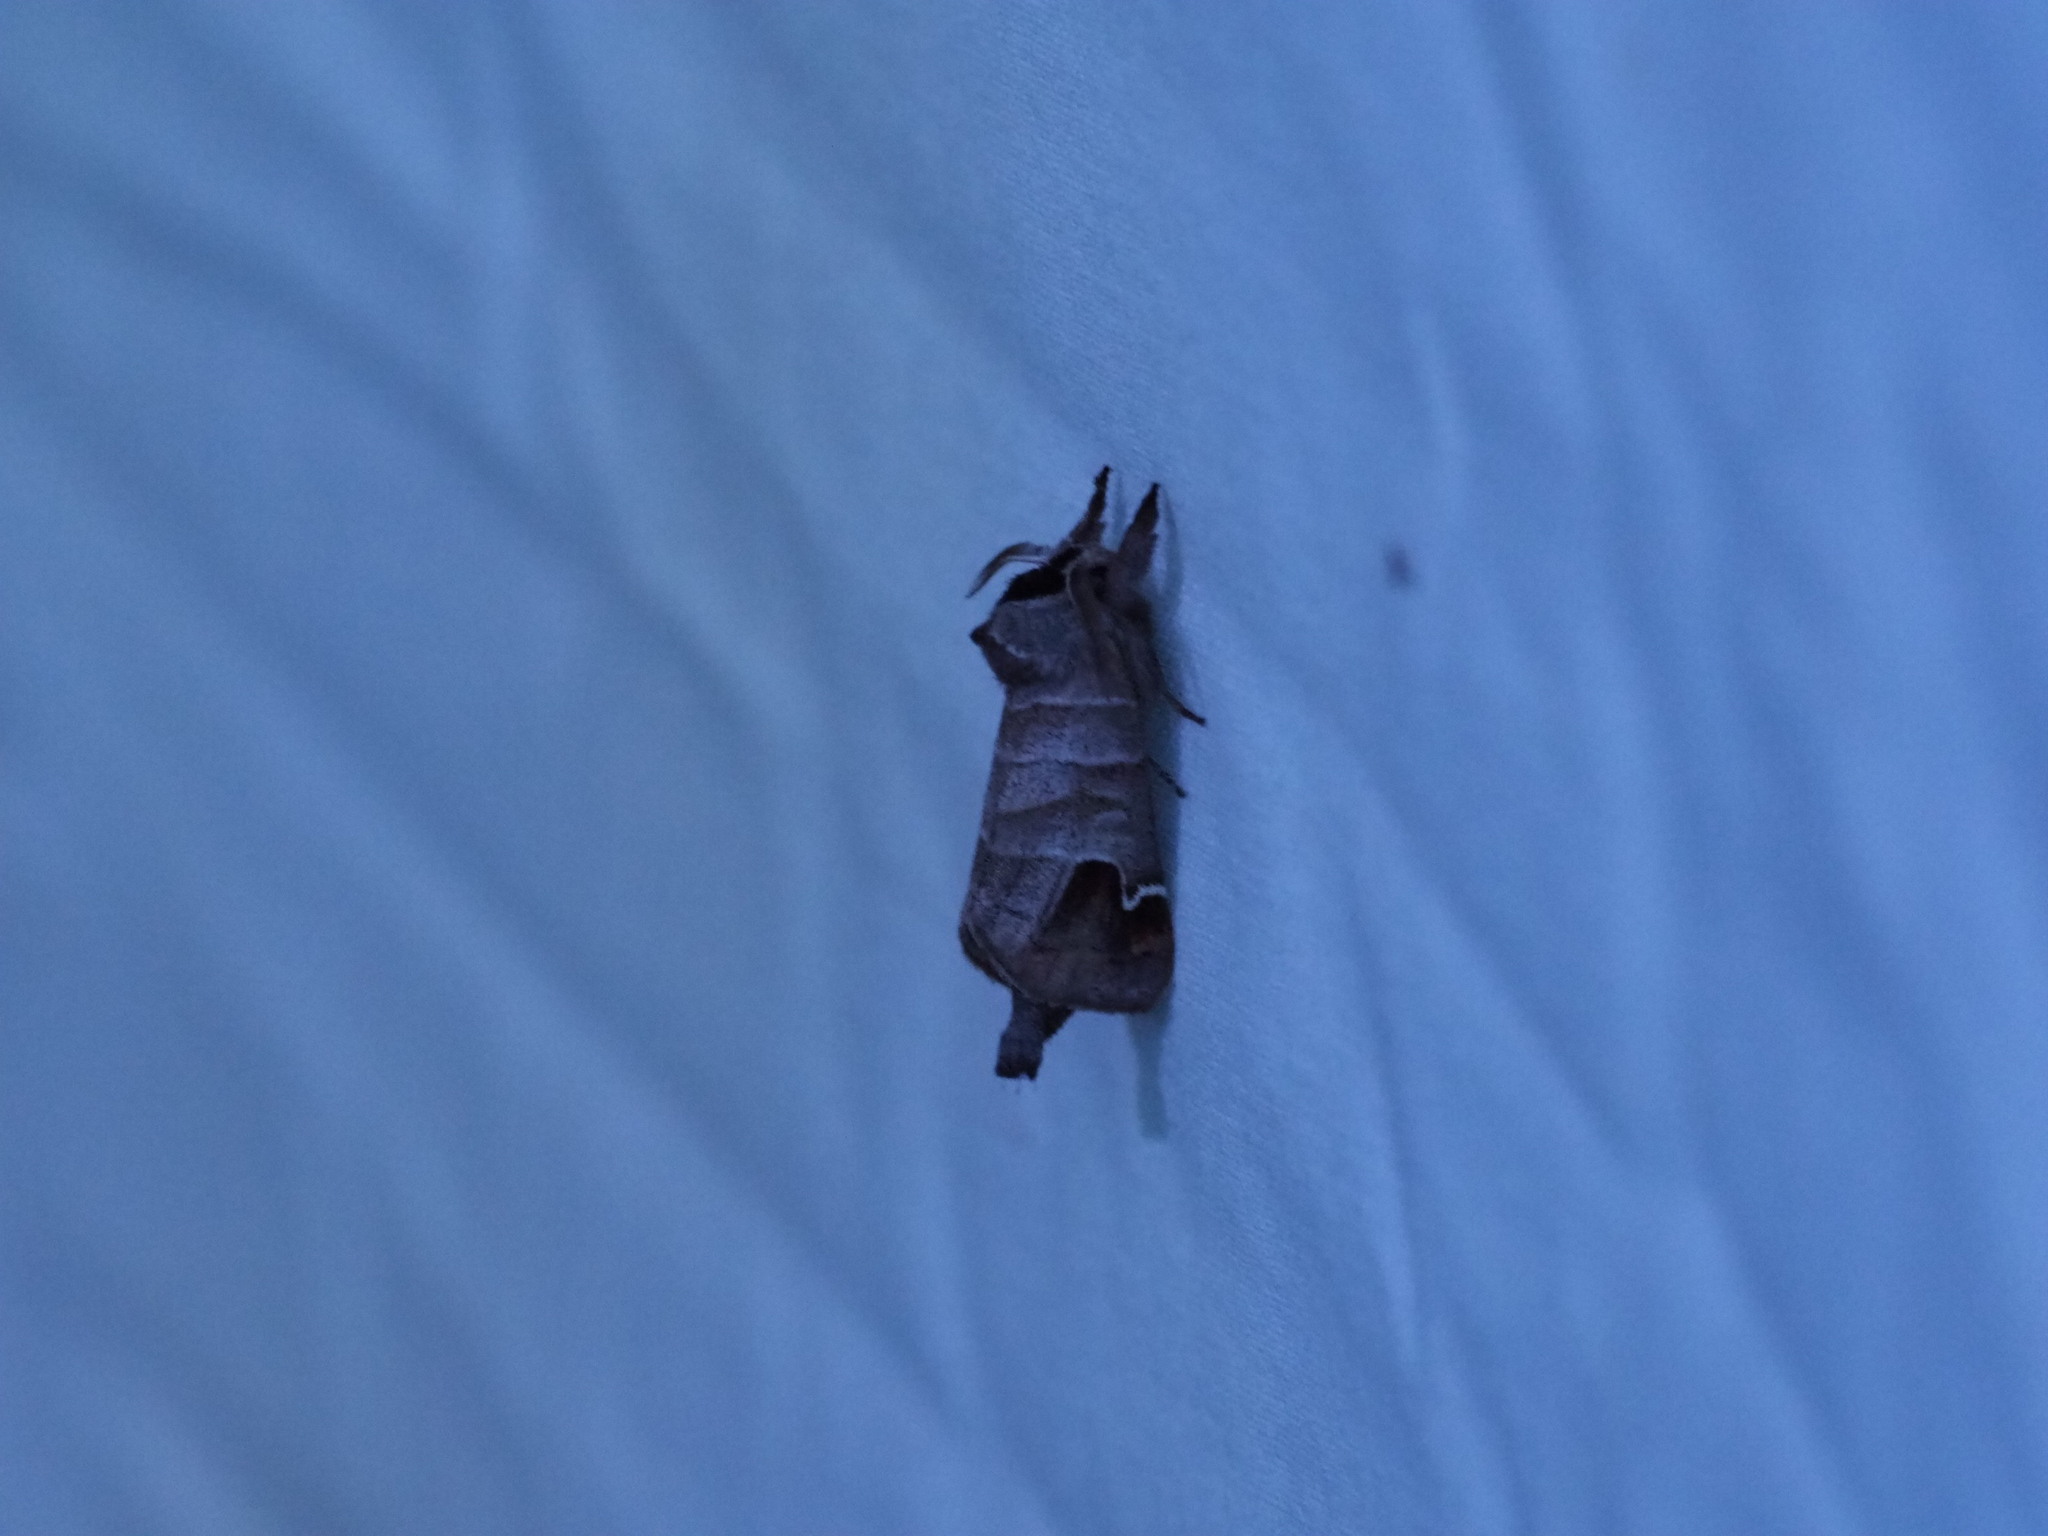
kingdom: Animalia
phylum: Arthropoda
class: Insecta
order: Lepidoptera
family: Notodontidae
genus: Clostera
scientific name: Clostera albosigma
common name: Sigmoid prominent
